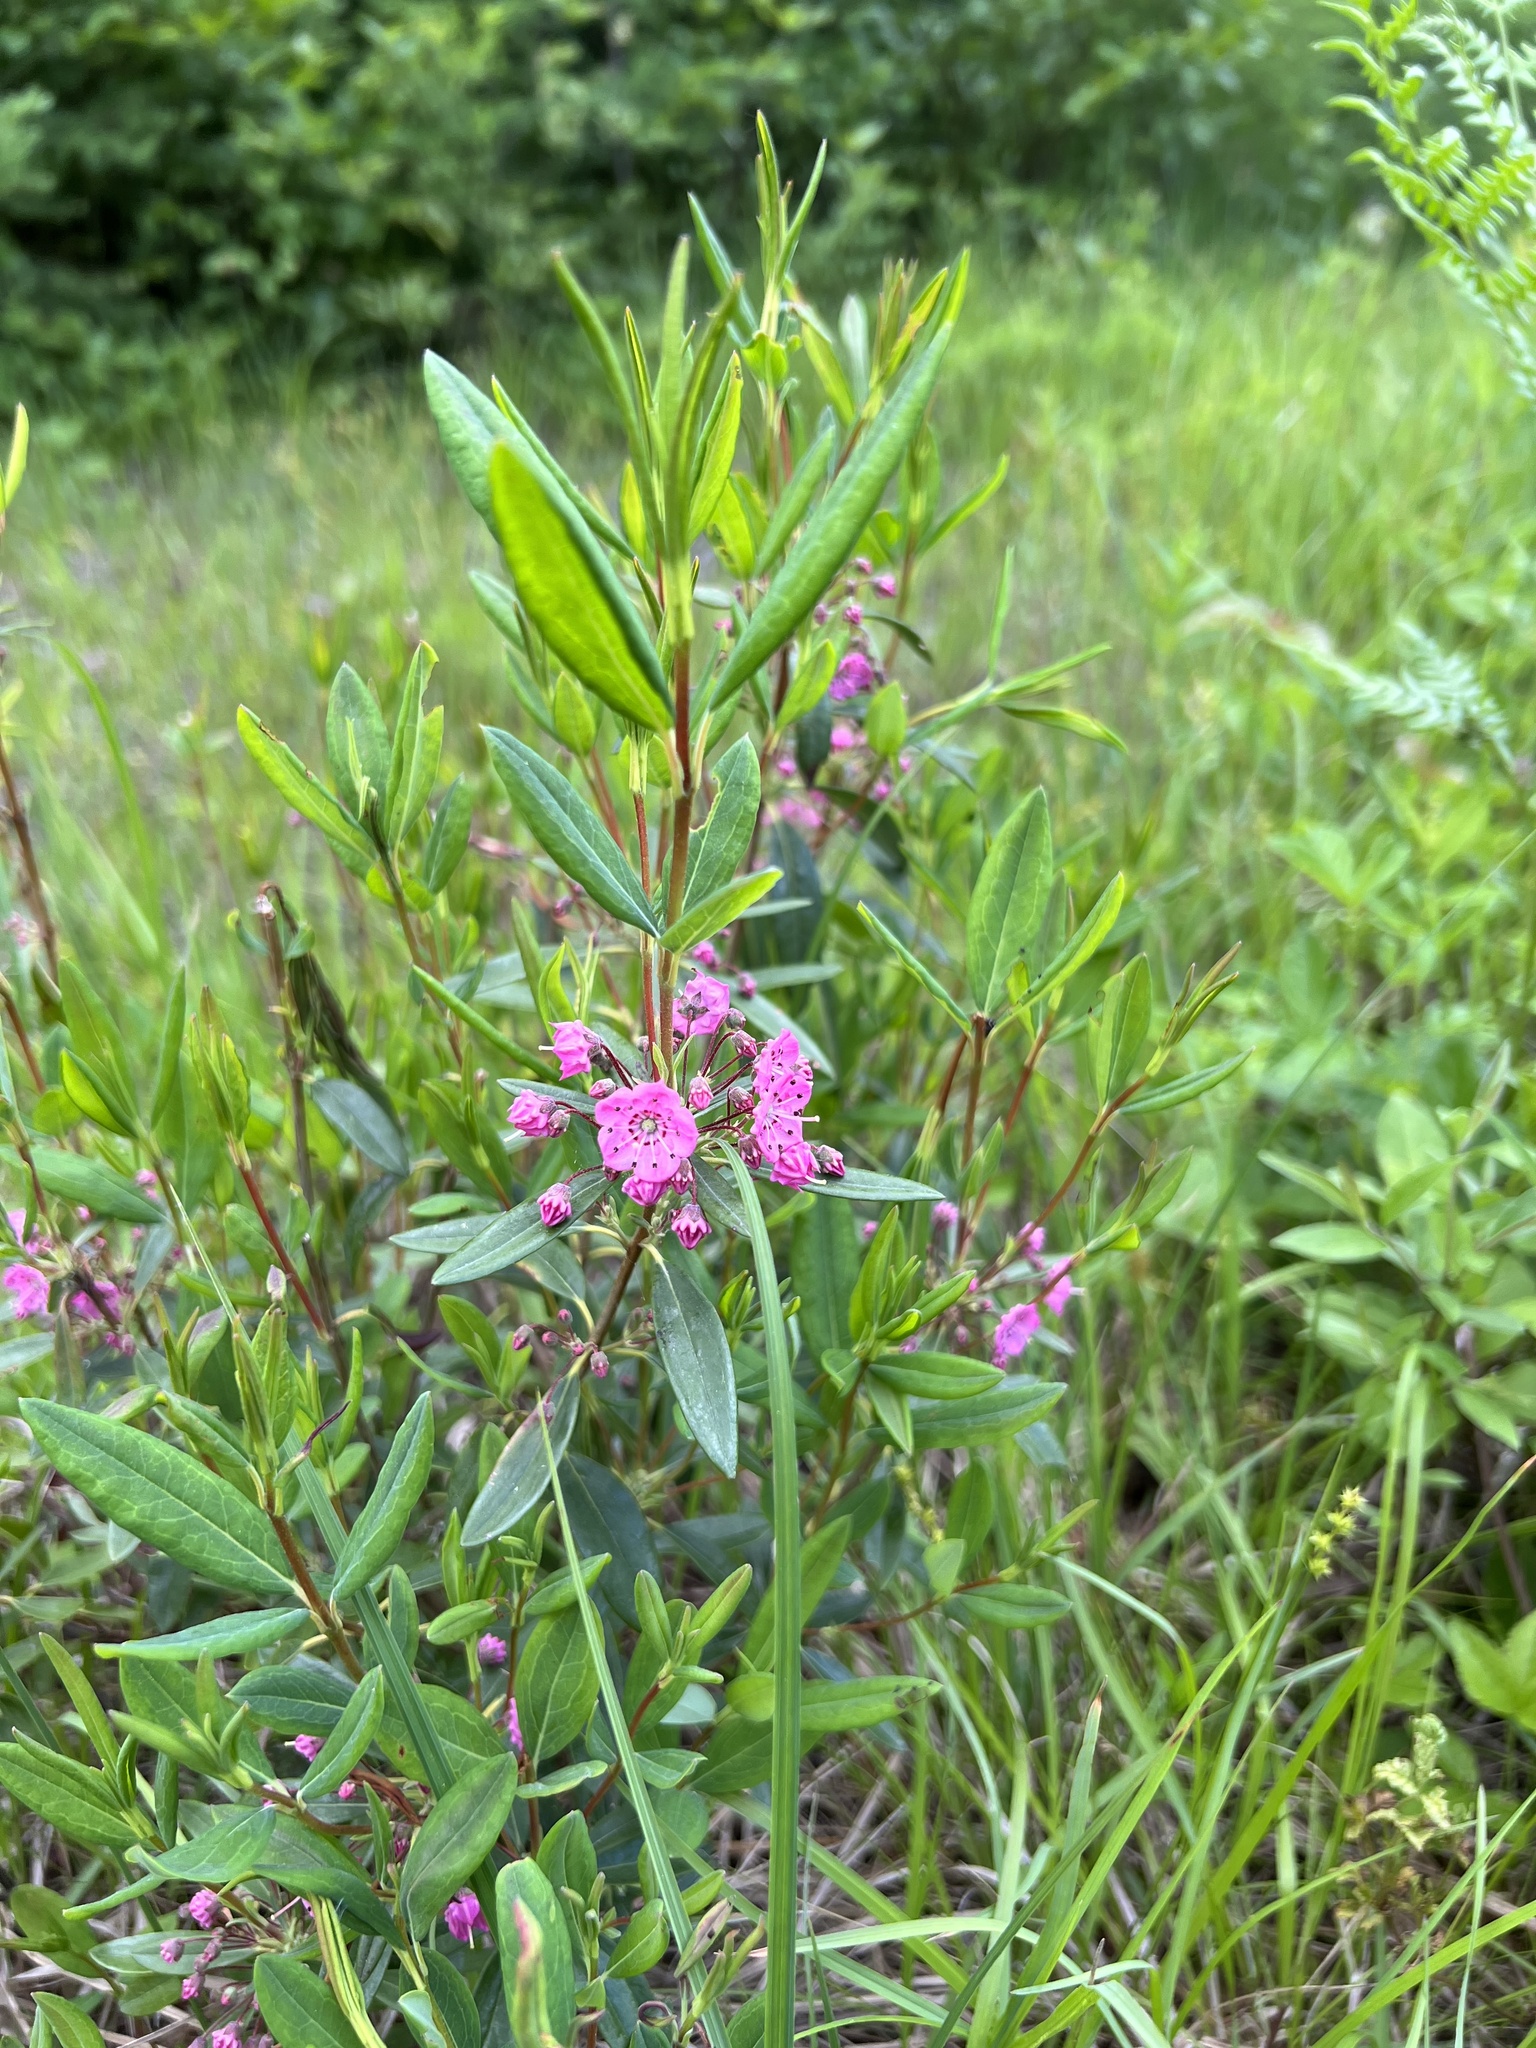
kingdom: Plantae
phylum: Tracheophyta
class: Magnoliopsida
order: Ericales
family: Ericaceae
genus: Kalmia
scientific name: Kalmia angustifolia
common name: Sheep-laurel
